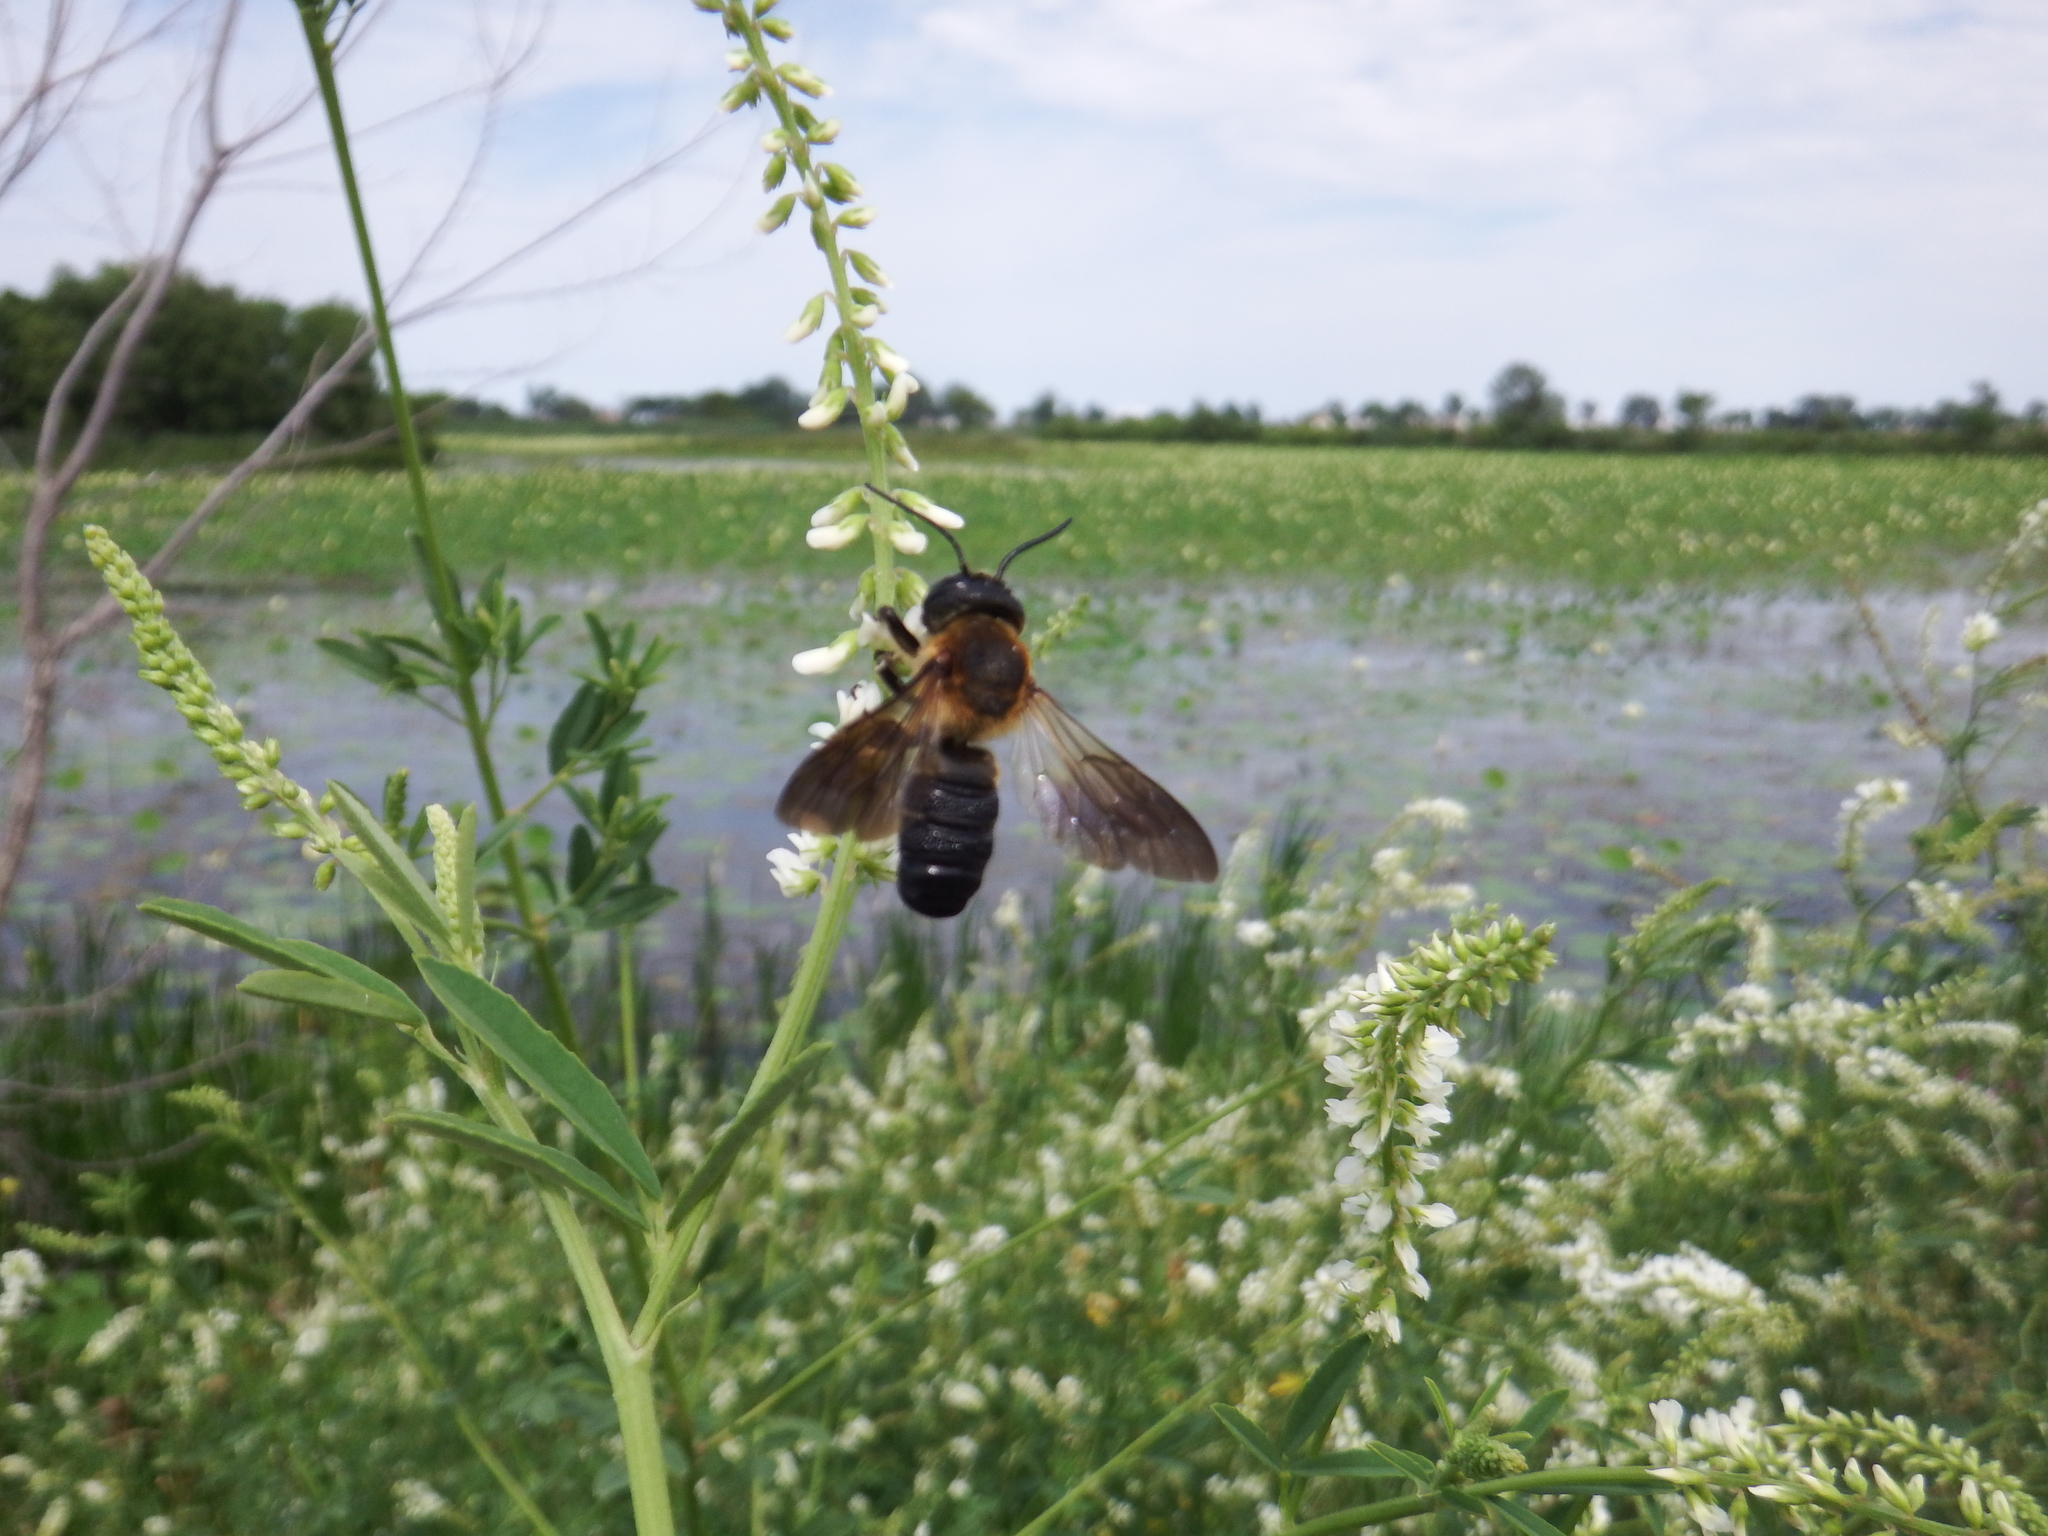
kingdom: Animalia
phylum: Arthropoda
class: Insecta
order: Hymenoptera
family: Megachilidae
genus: Megachile
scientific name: Megachile sculpturalis
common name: Sculptured resin bee
